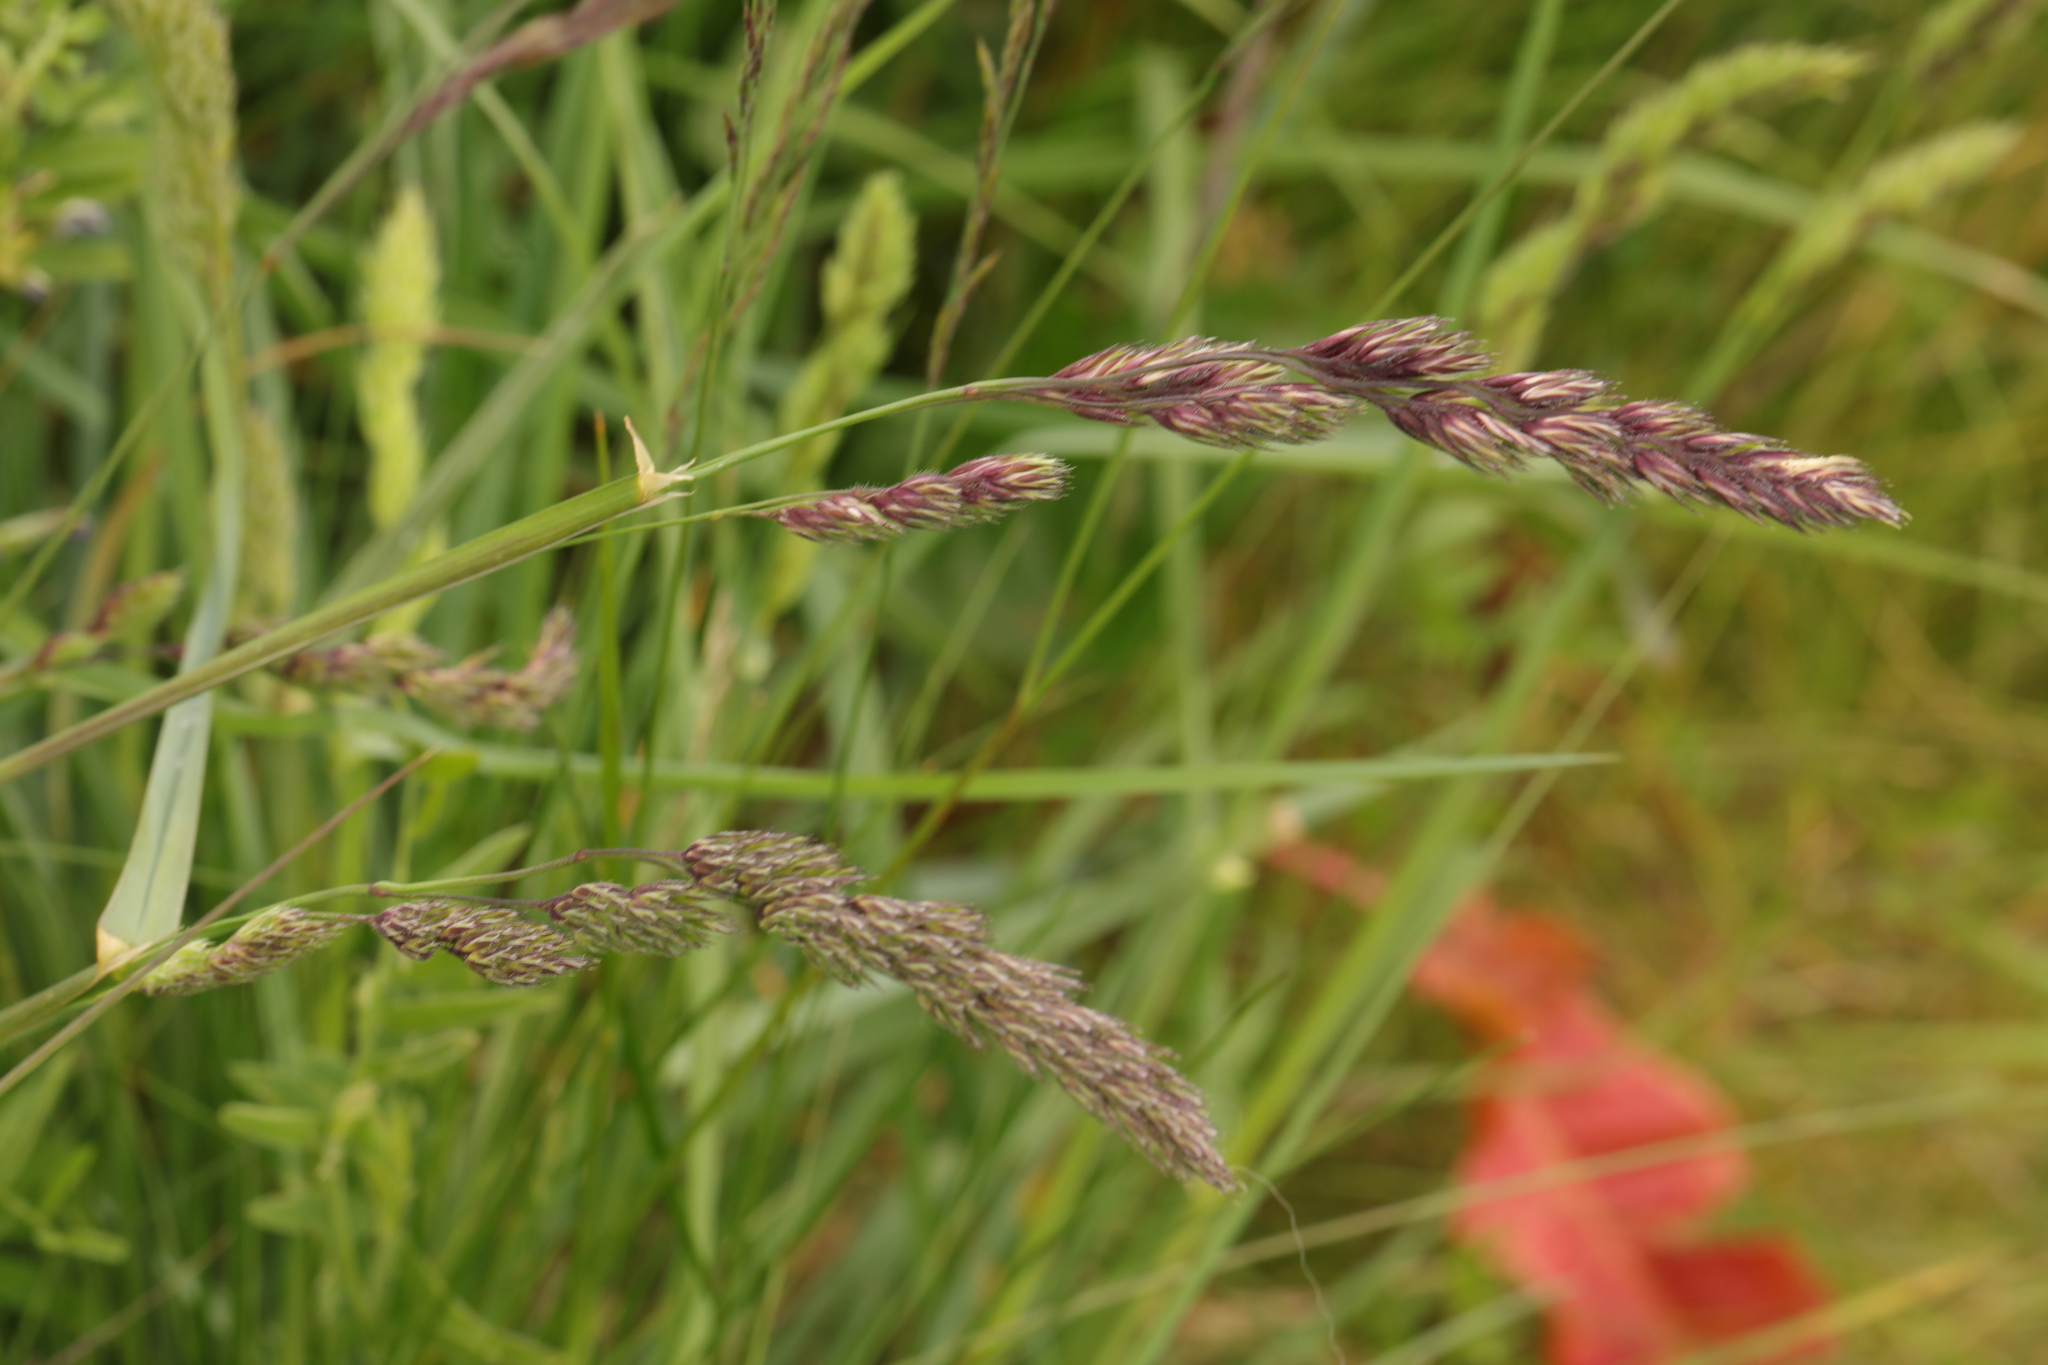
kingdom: Plantae
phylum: Tracheophyta
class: Liliopsida
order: Poales
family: Poaceae
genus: Dactylis
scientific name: Dactylis glomerata
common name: Orchardgrass
